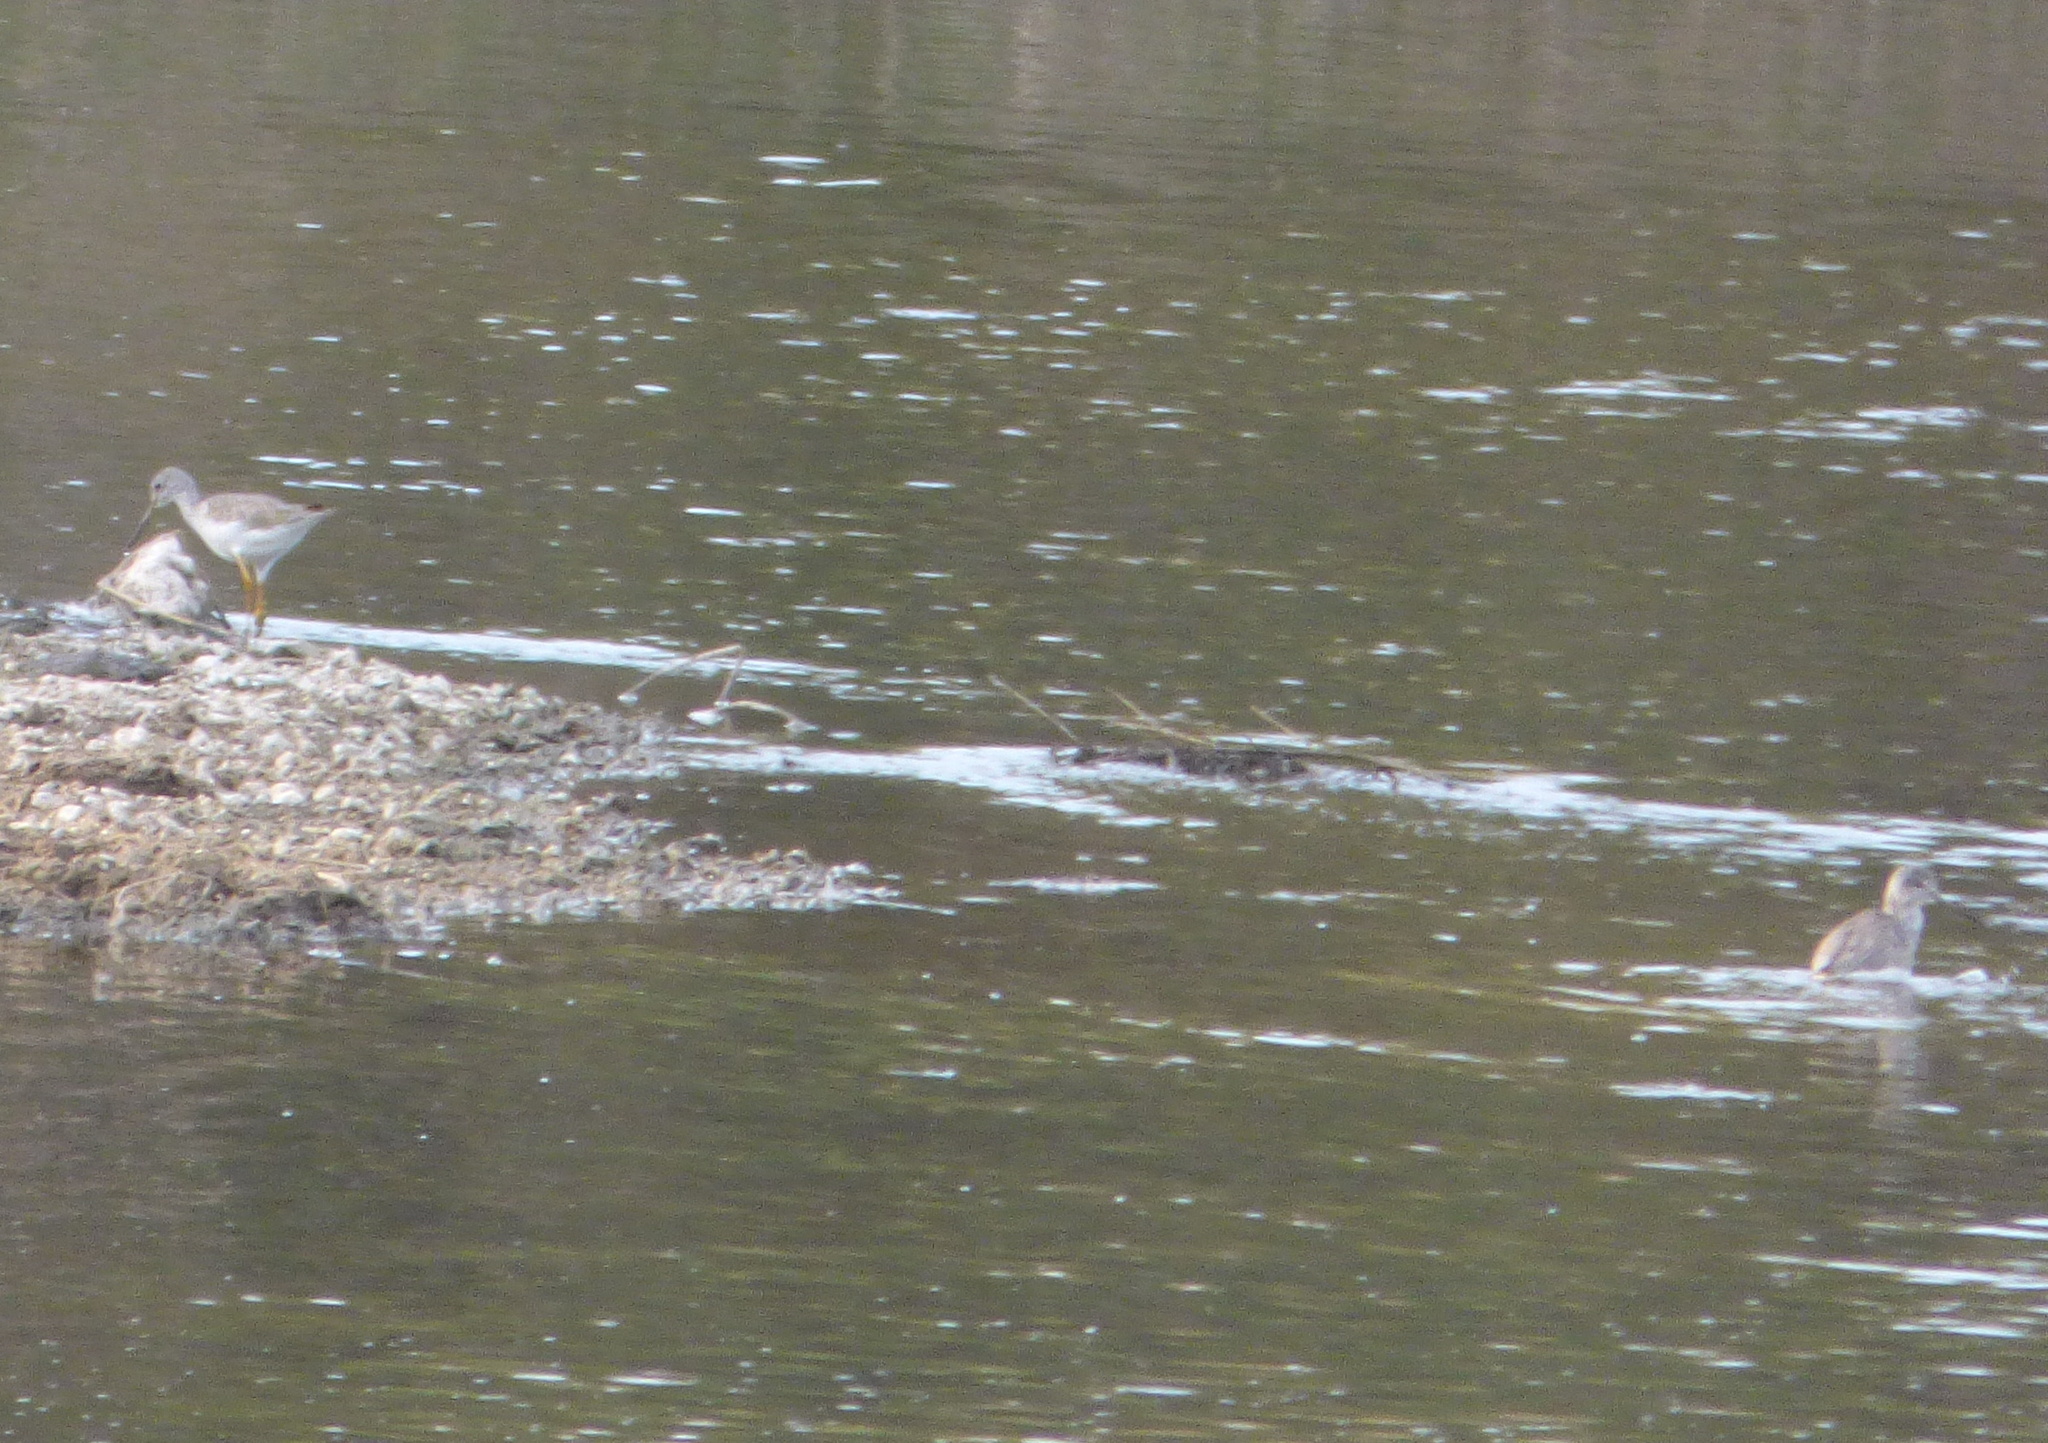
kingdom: Animalia
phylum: Chordata
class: Aves
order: Charadriiformes
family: Scolopacidae
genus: Tringa
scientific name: Tringa melanoleuca
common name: Greater yellowlegs
